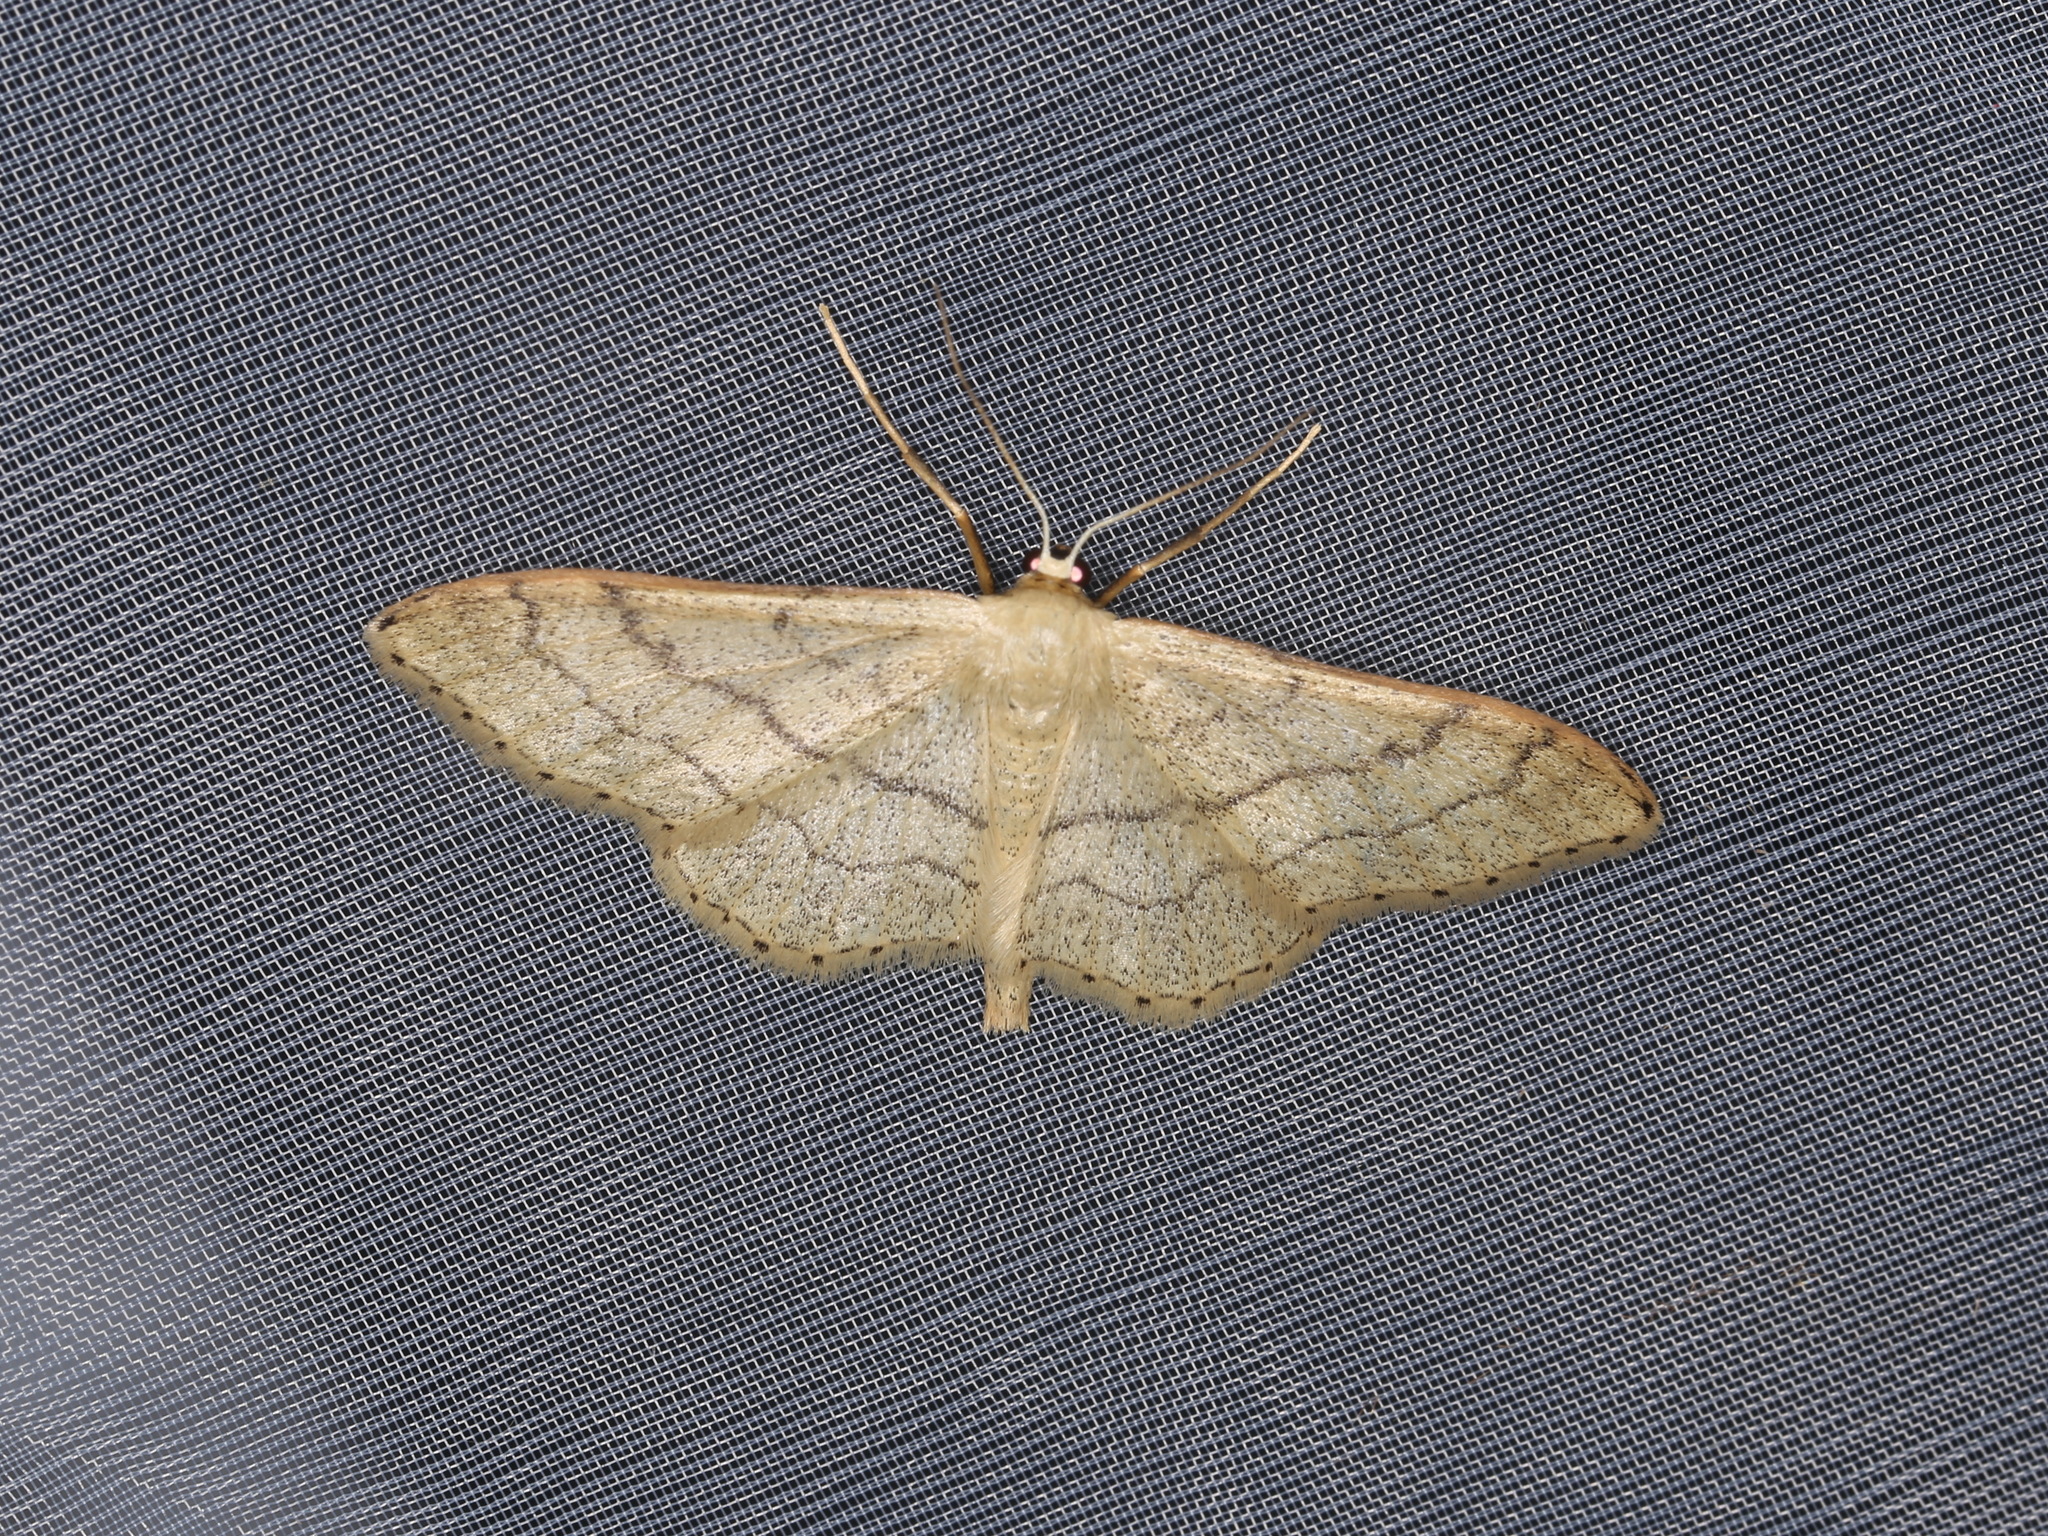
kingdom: Animalia
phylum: Arthropoda
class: Insecta
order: Lepidoptera
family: Geometridae
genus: Idaea
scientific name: Idaea aversata
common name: Riband wave
